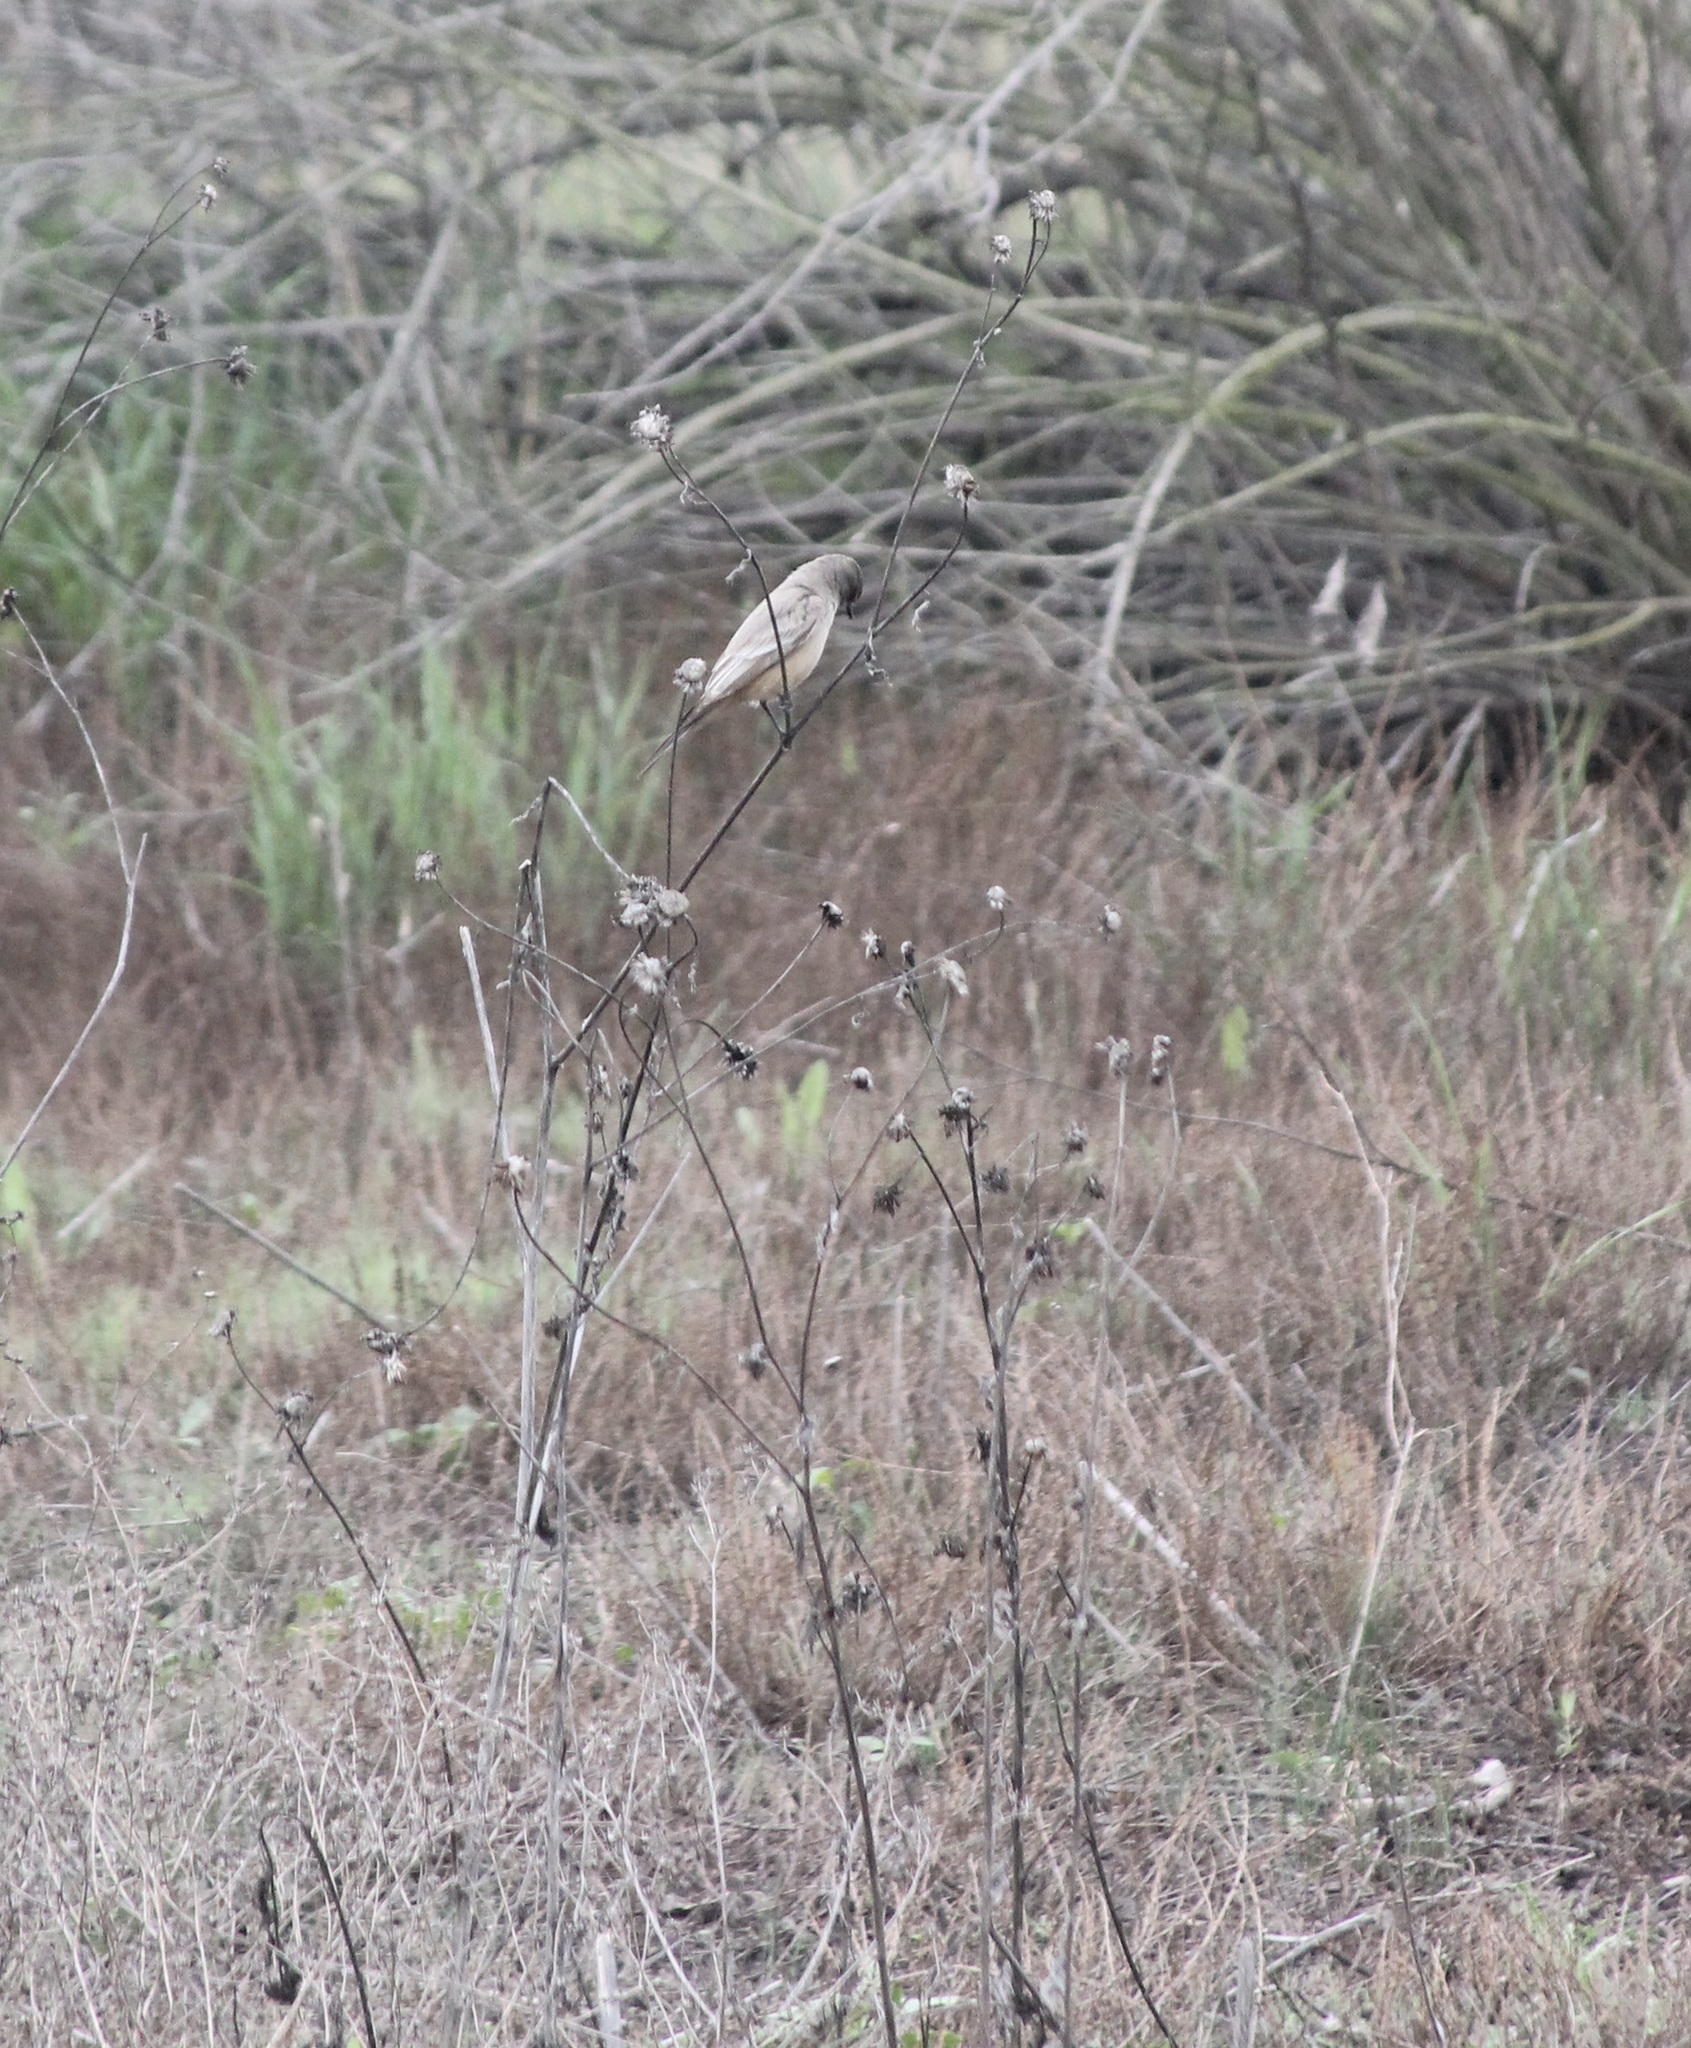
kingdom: Animalia
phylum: Chordata
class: Aves
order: Passeriformes
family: Tyrannidae
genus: Sayornis
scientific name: Sayornis saya
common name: Say's phoebe
